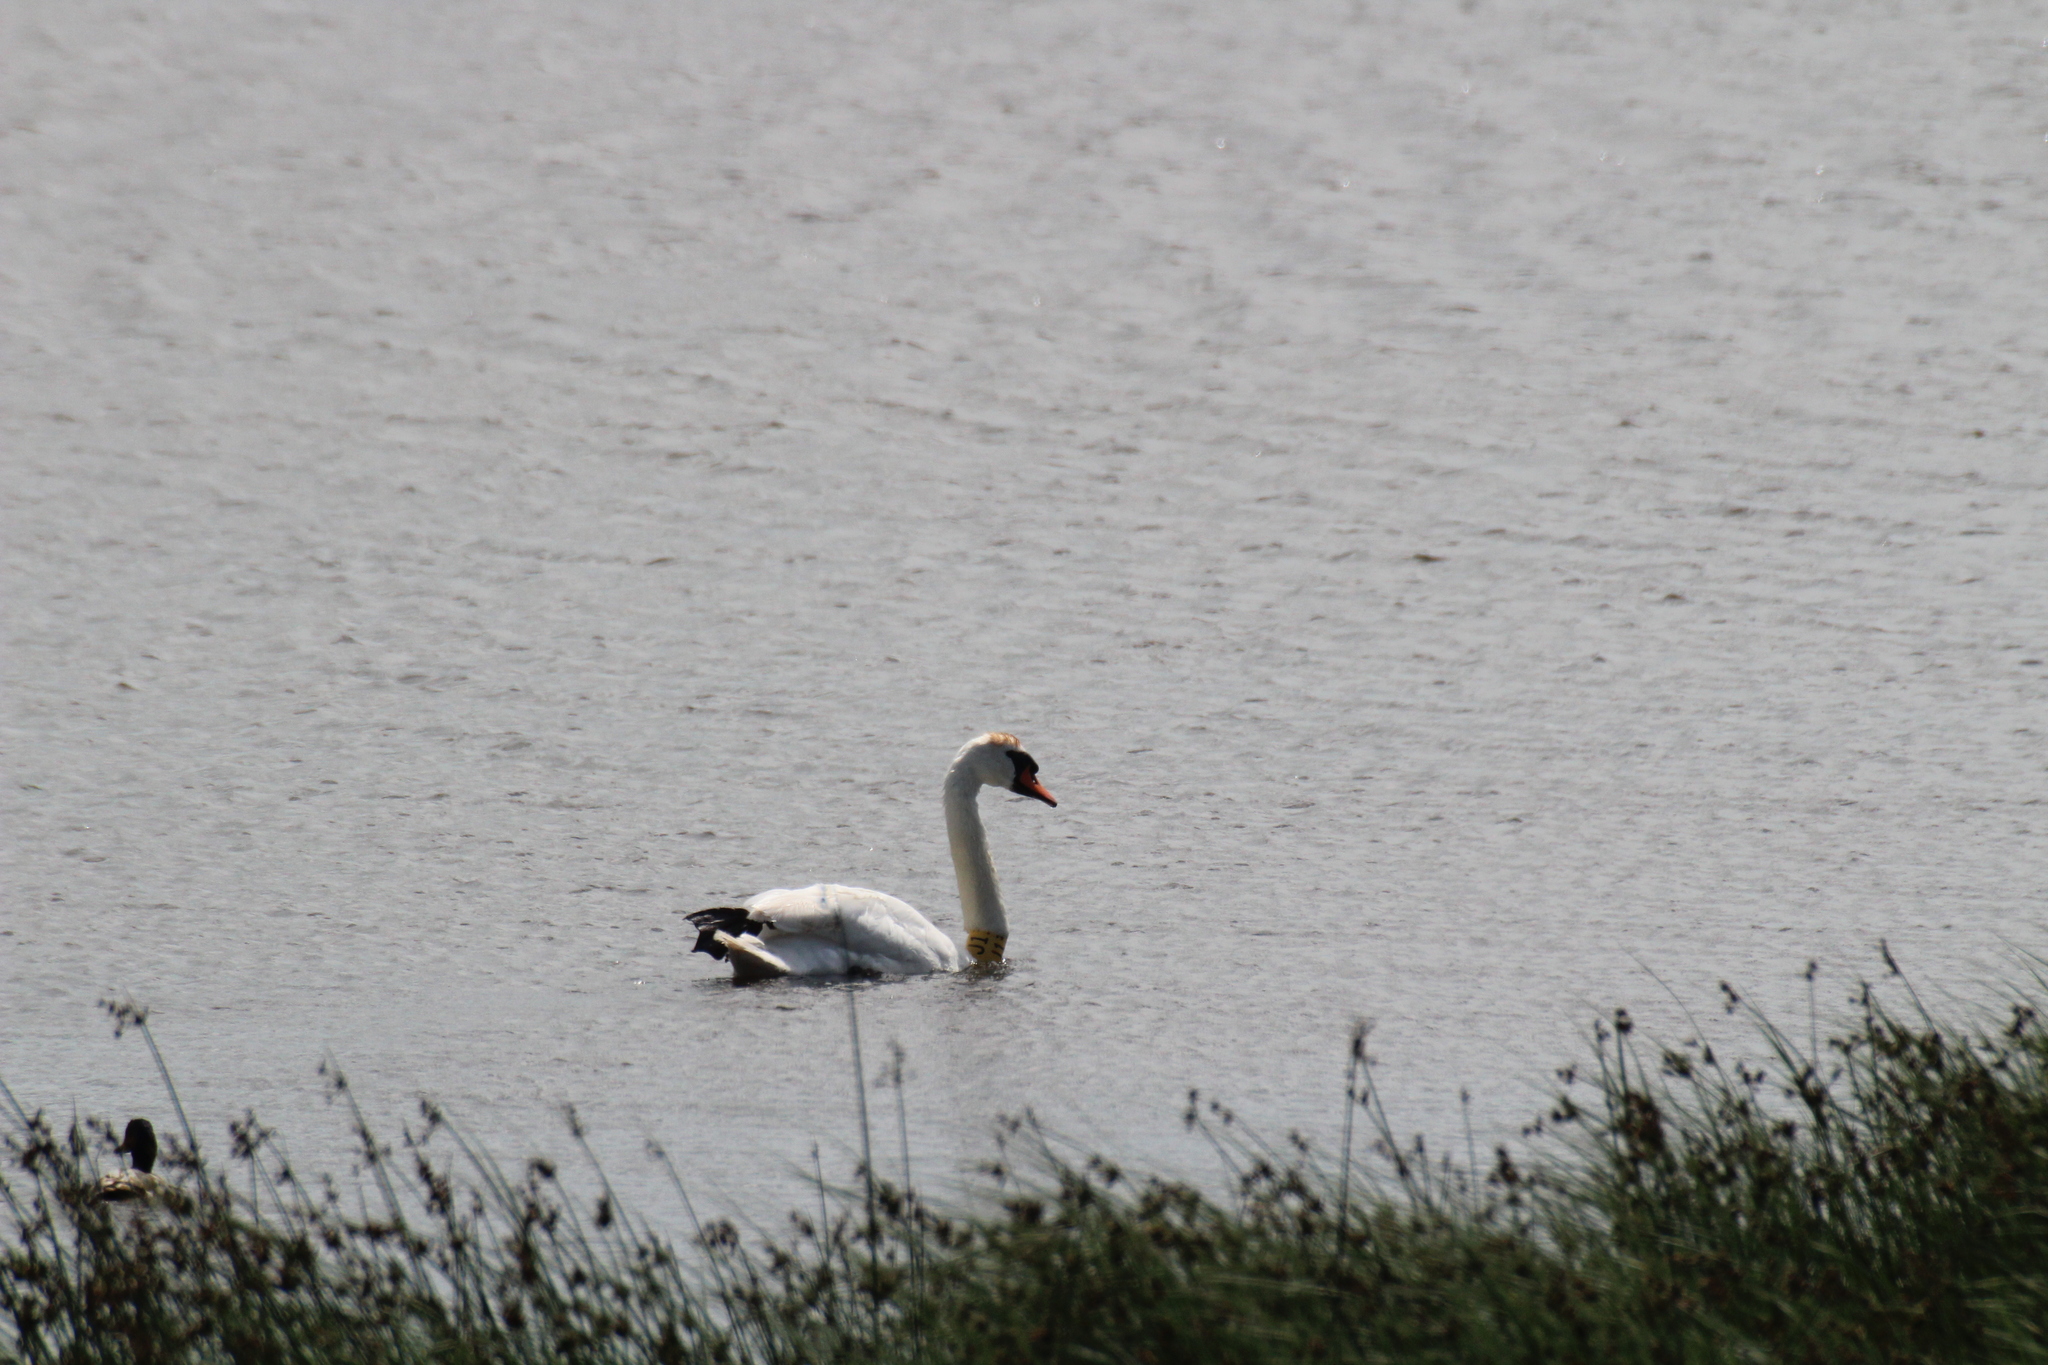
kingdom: Animalia
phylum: Chordata
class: Aves
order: Anseriformes
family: Anatidae
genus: Cygnus
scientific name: Cygnus olor
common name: Mute swan
